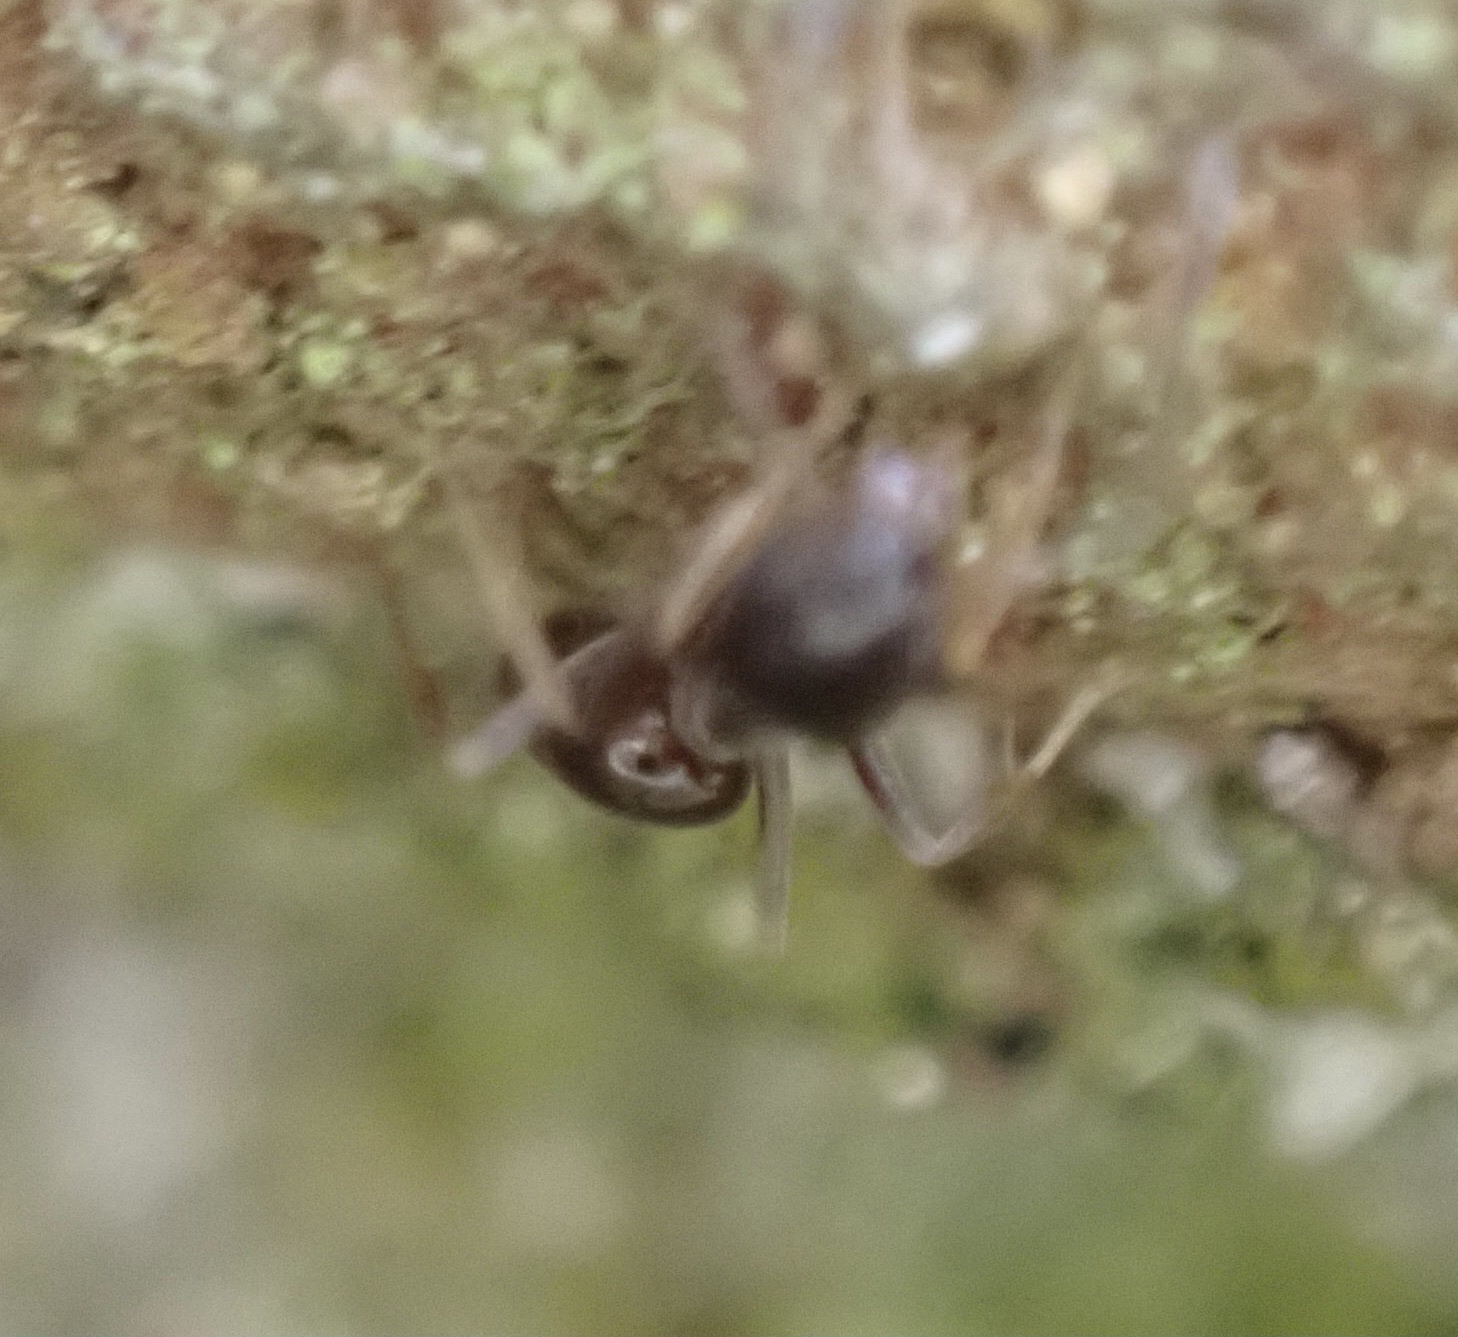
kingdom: Animalia
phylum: Arthropoda
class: Insecta
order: Hymenoptera
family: Formicidae
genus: Tapinoma
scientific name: Tapinoma sessile
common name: Odorous house ant
